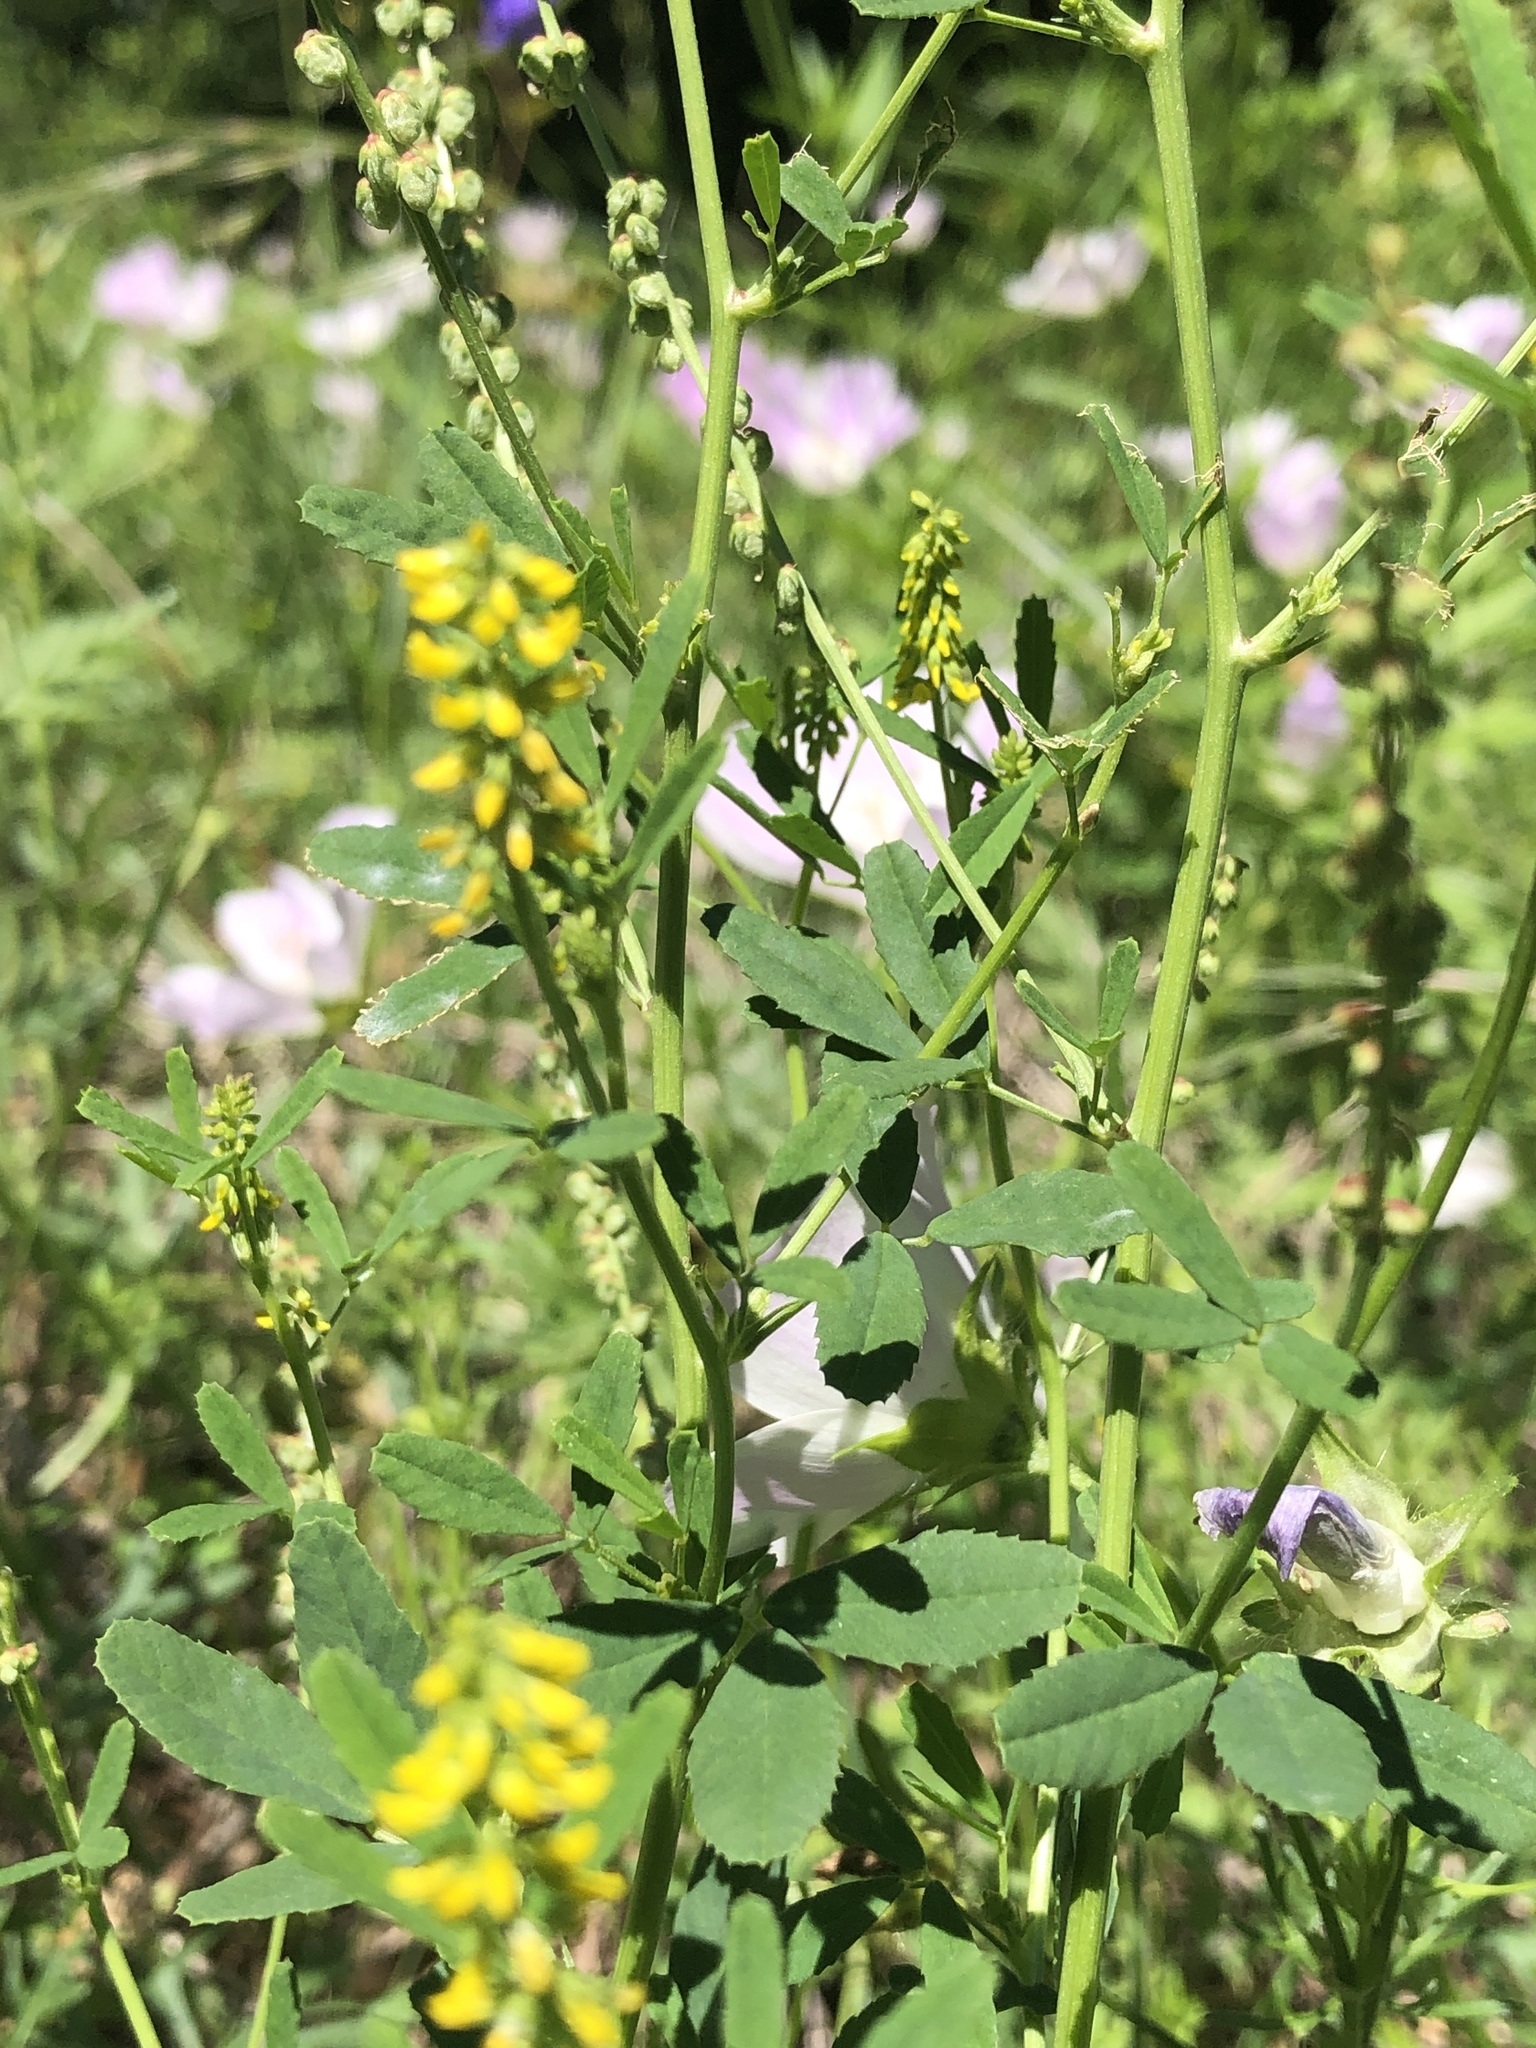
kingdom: Plantae
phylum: Tracheophyta
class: Magnoliopsida
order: Fabales
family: Fabaceae
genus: Melilotus
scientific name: Melilotus indicus
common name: Small melilot
